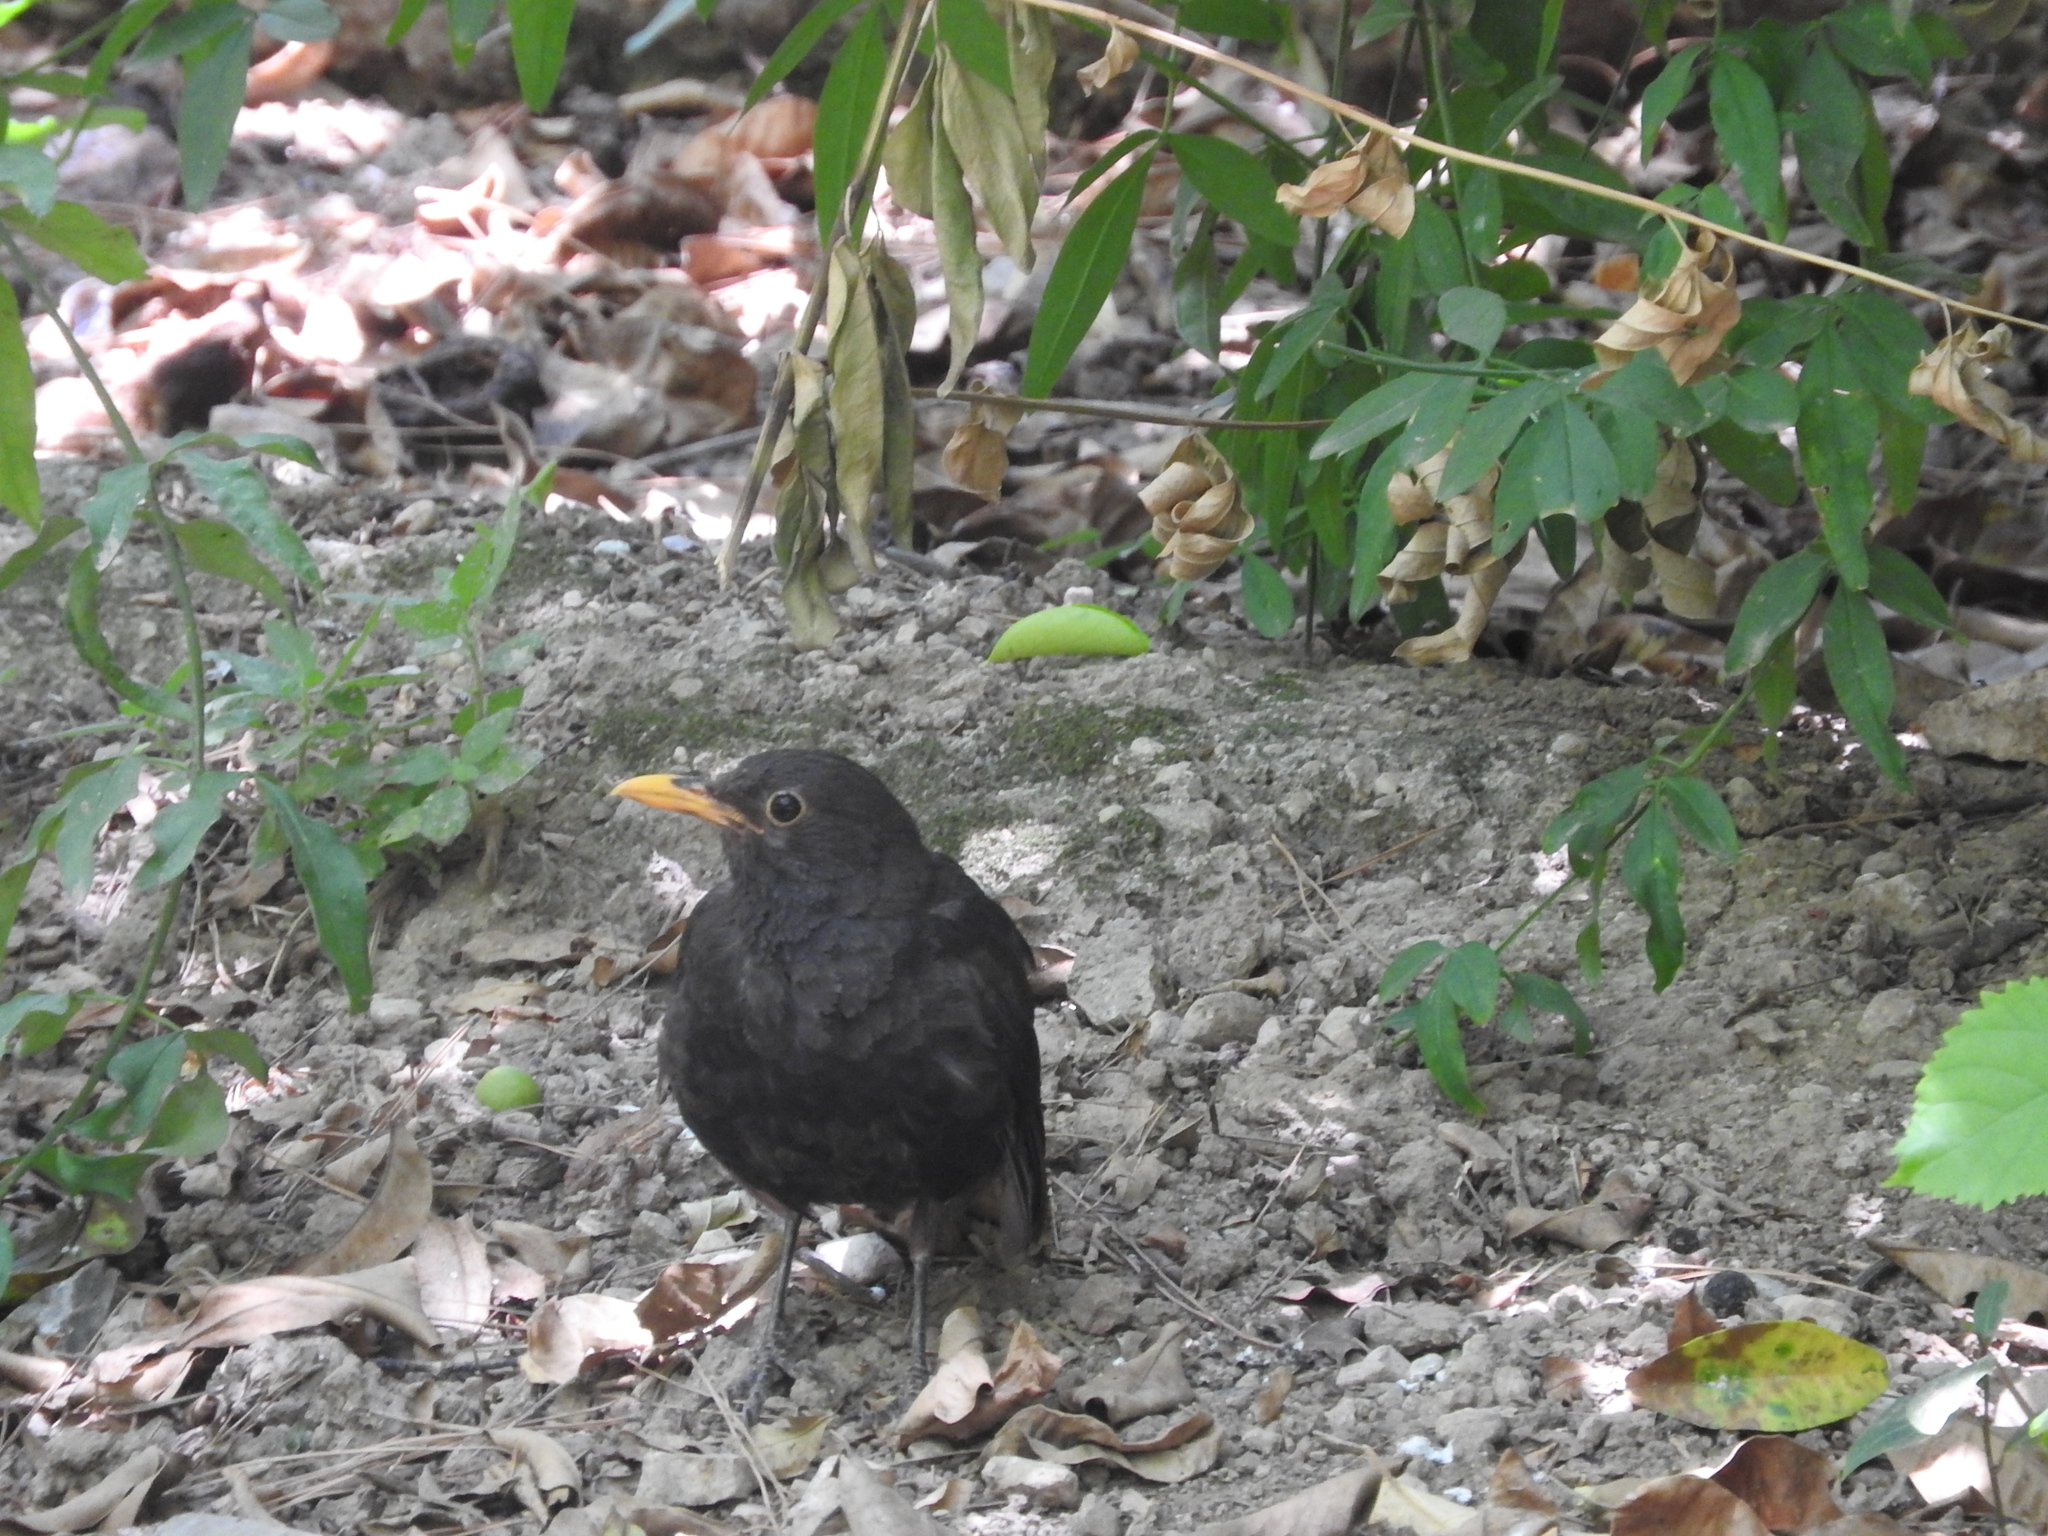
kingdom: Animalia
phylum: Chordata
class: Aves
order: Passeriformes
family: Turdidae
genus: Turdus
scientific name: Turdus merula
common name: Common blackbird
